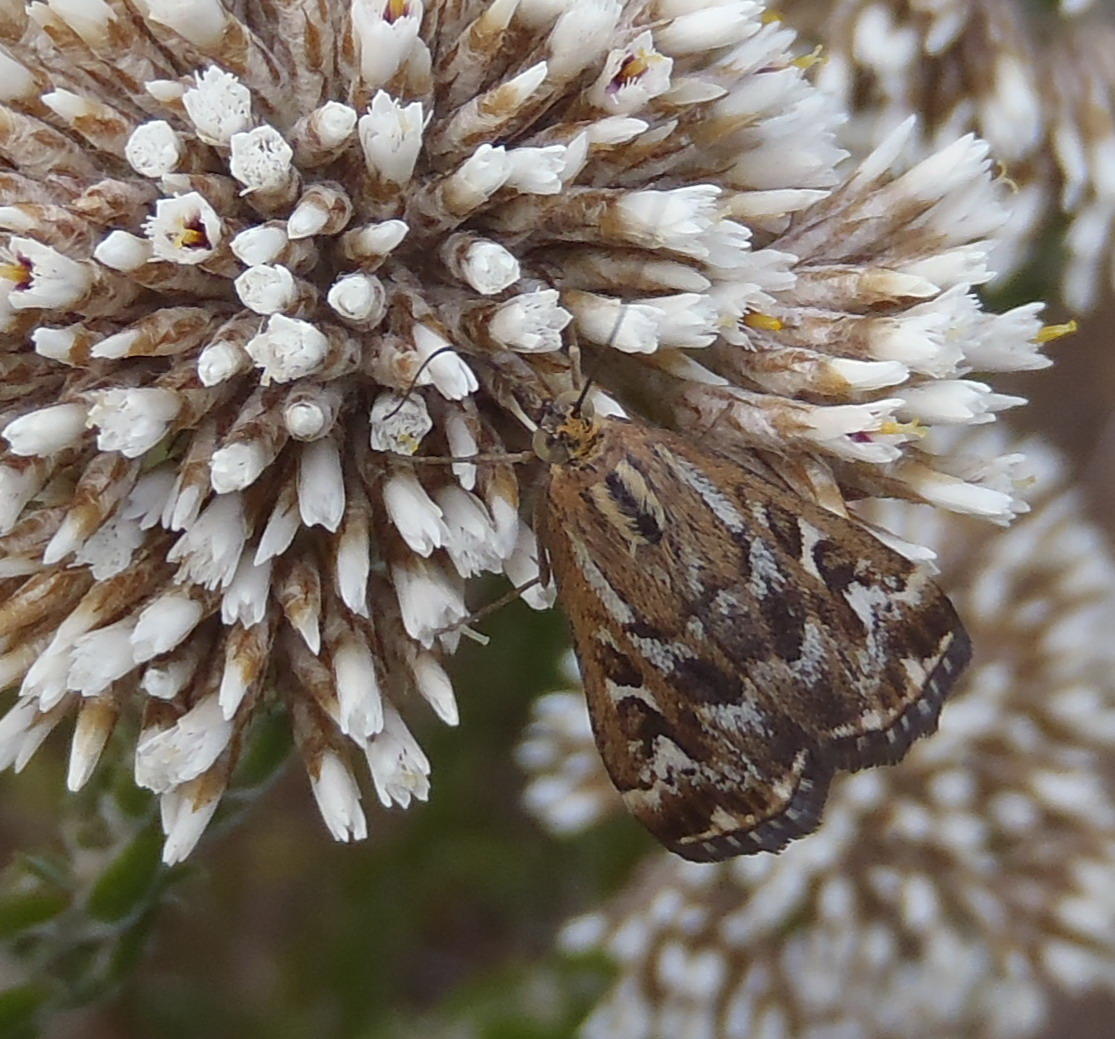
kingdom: Animalia
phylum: Arthropoda
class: Insecta
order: Lepidoptera
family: Crambidae
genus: Loxostege
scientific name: Loxostege frustalis
